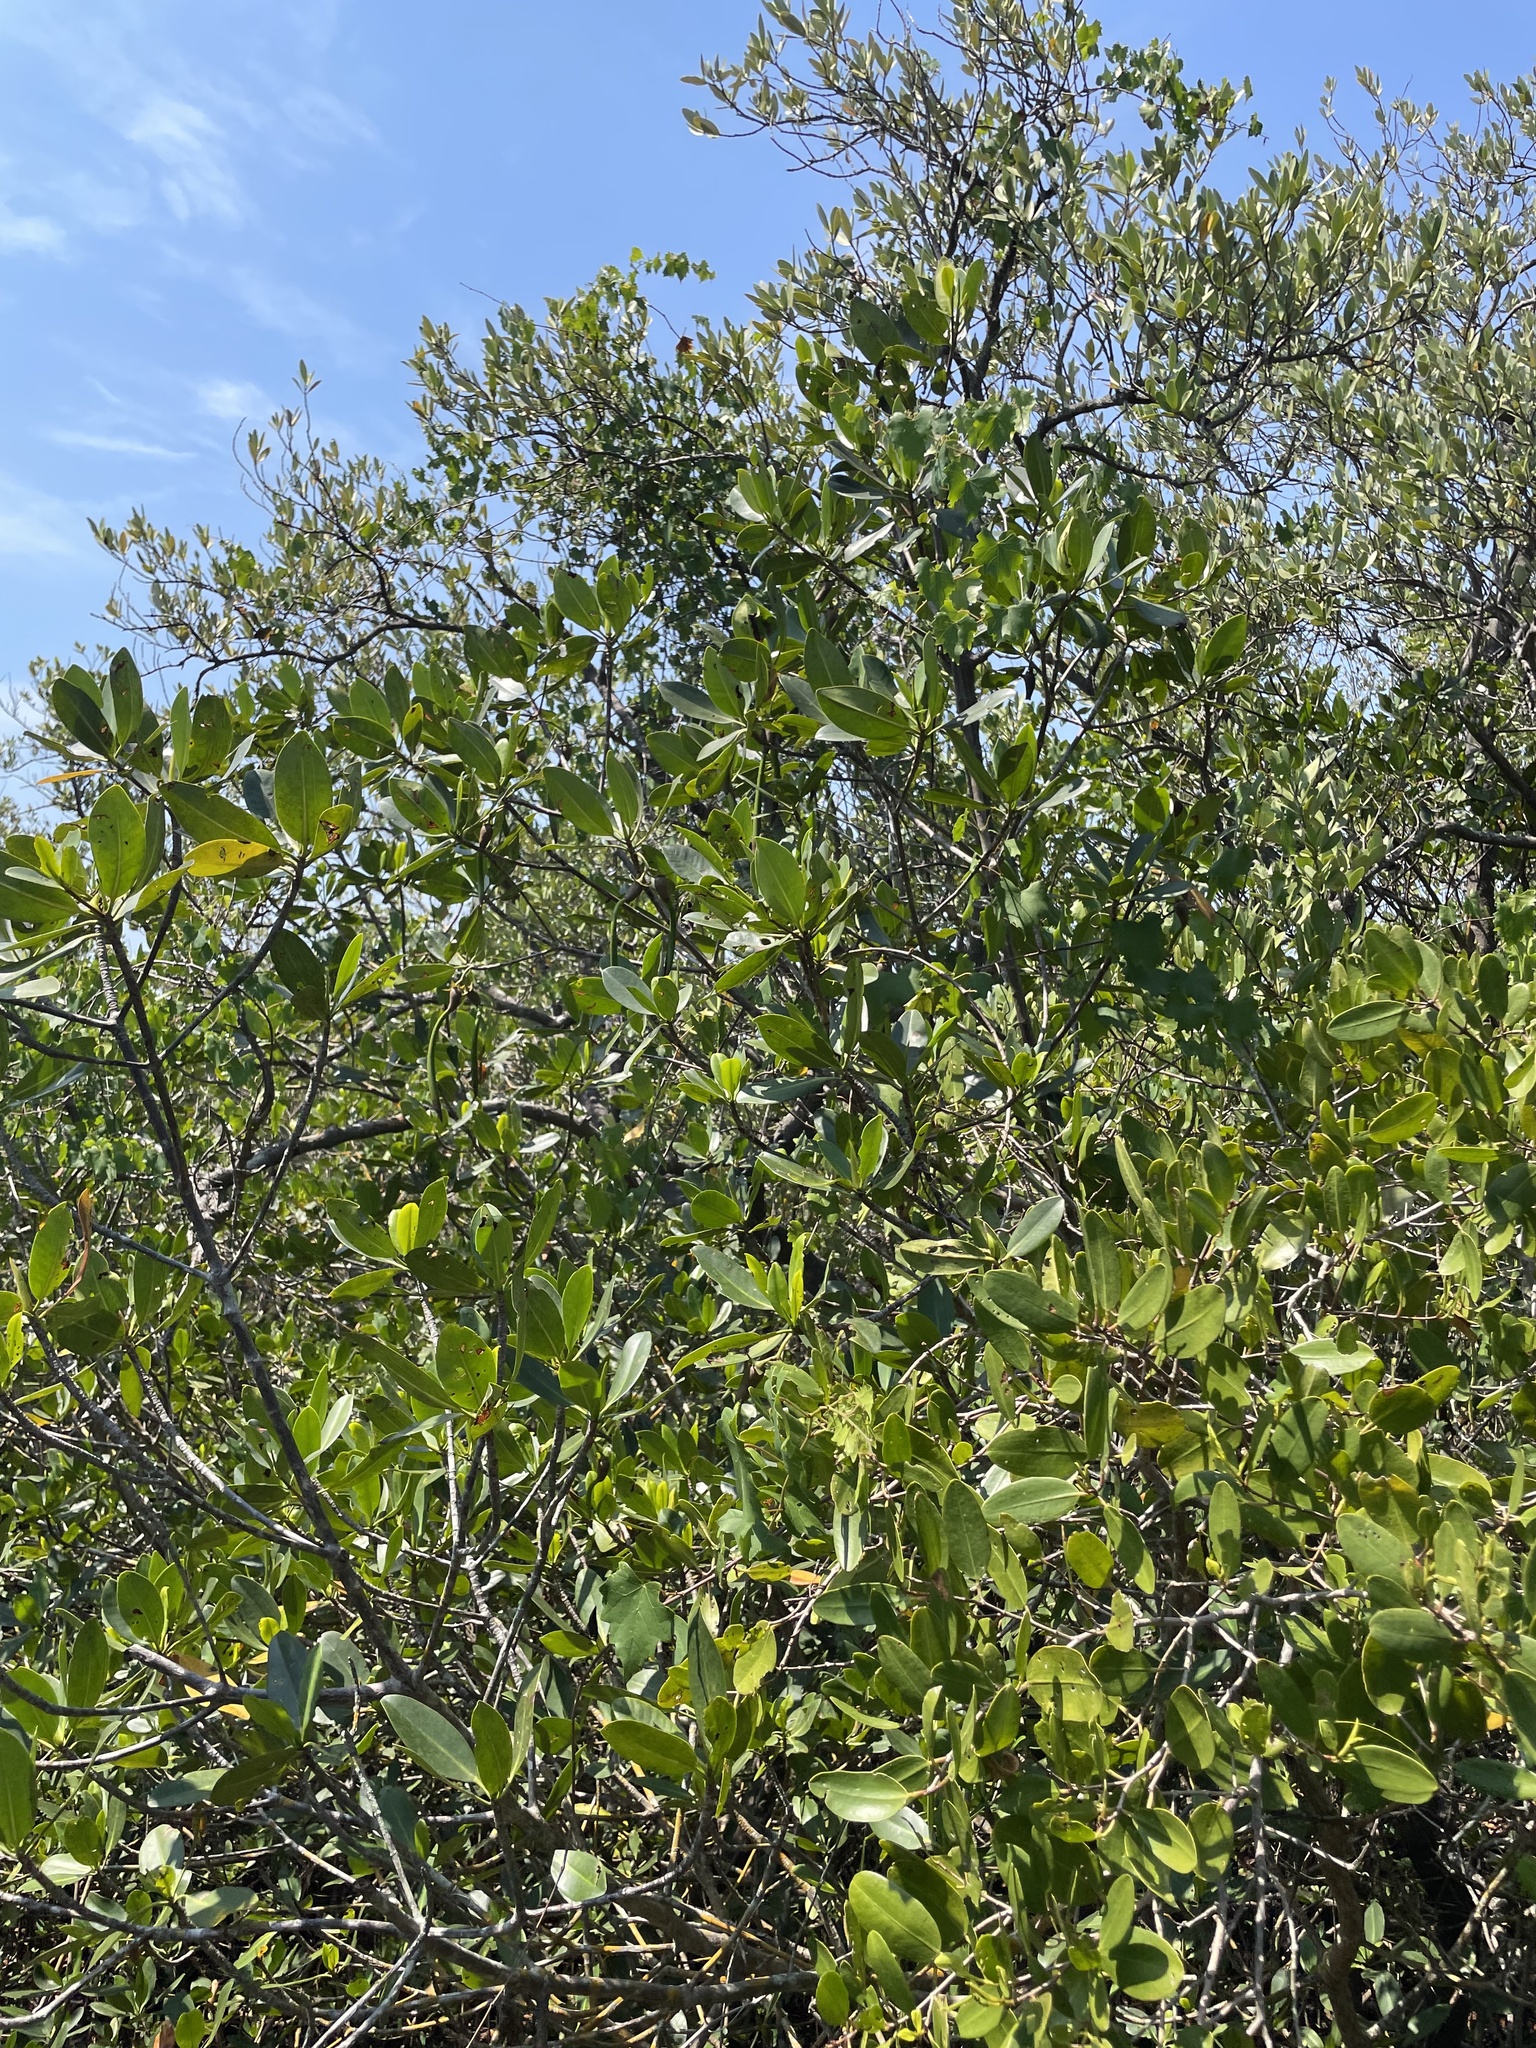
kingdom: Plantae
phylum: Tracheophyta
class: Magnoliopsida
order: Malpighiales
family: Rhizophoraceae
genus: Rhizophora
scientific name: Rhizophora mangle
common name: Red mangrove
